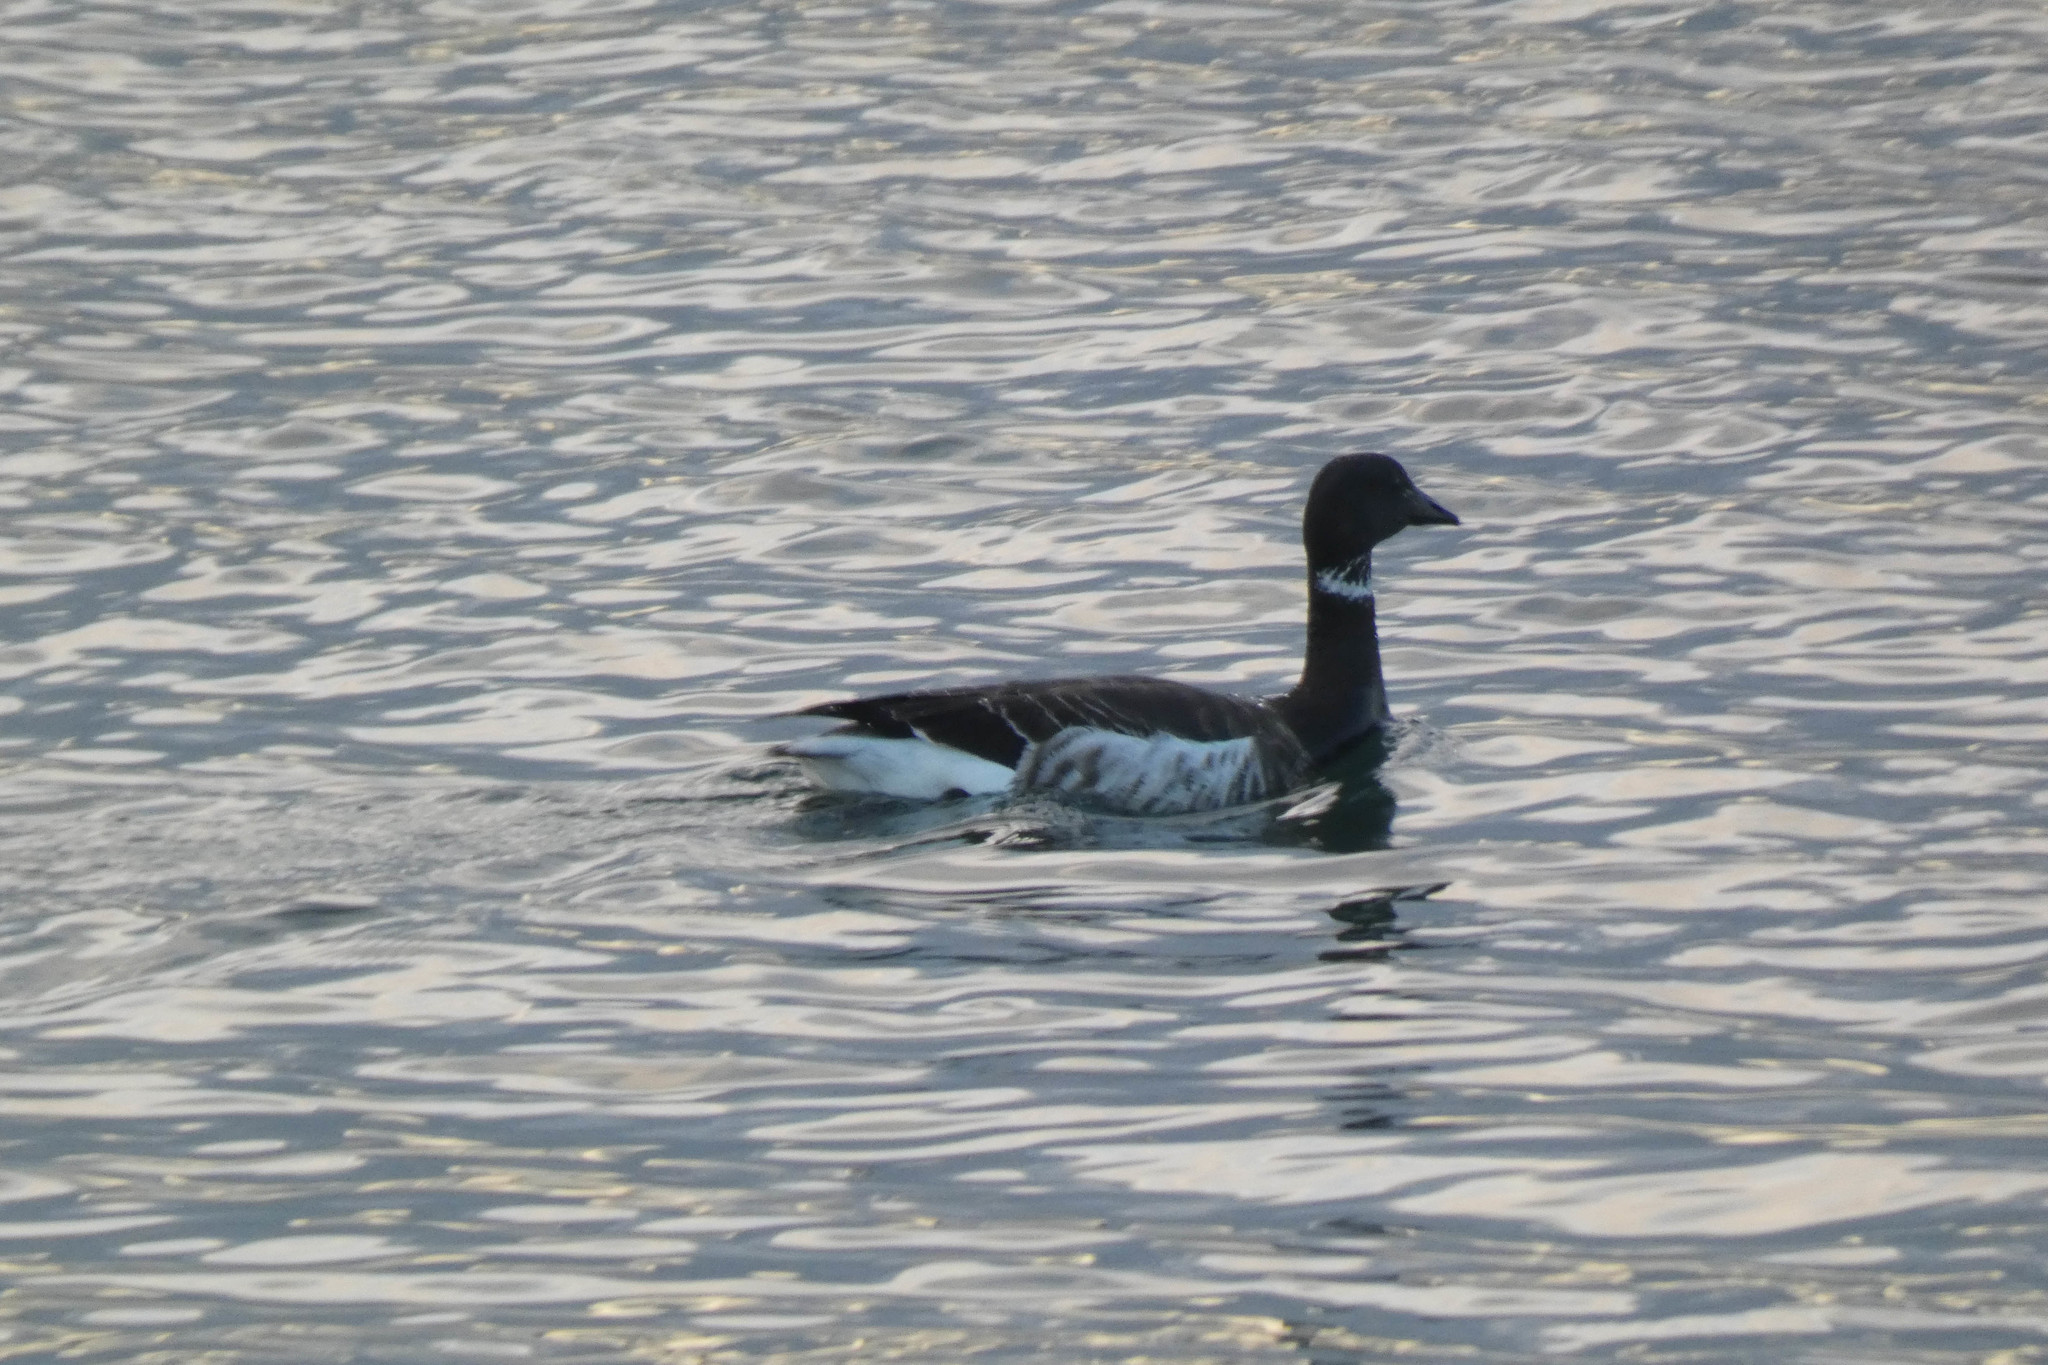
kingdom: Animalia
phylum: Chordata
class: Aves
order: Anseriformes
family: Anatidae
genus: Branta
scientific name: Branta bernicla
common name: Brant goose
